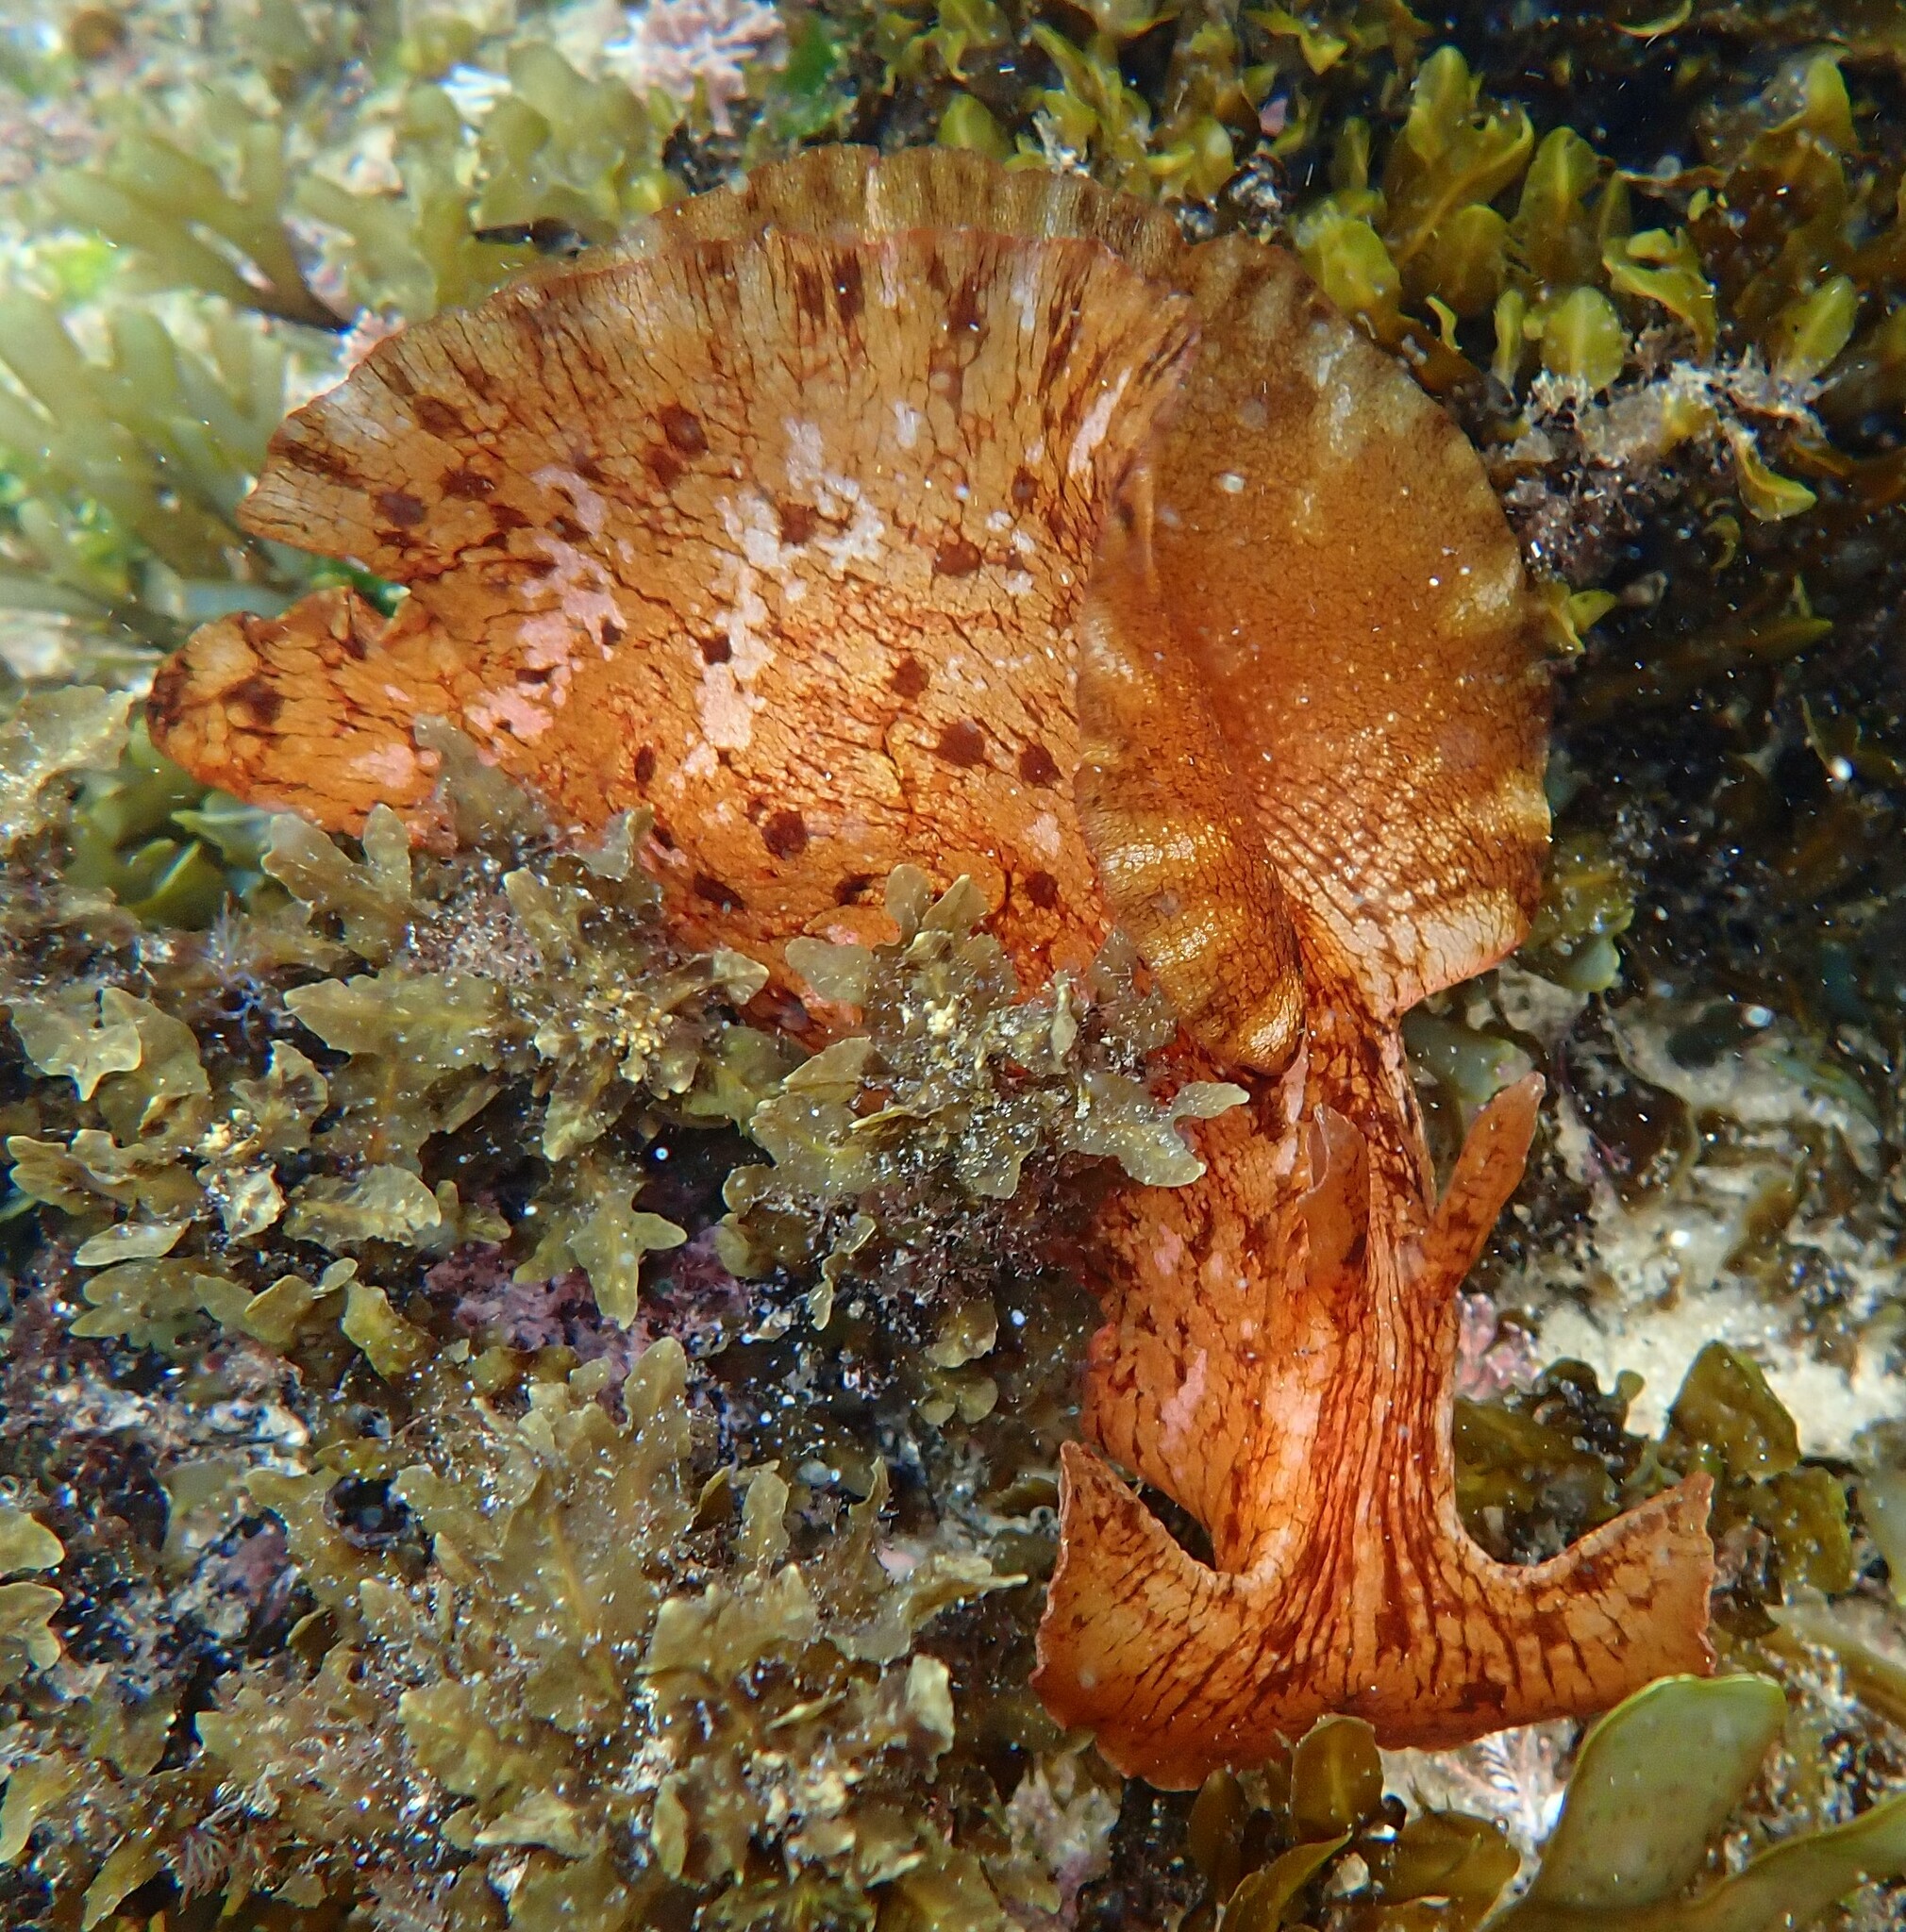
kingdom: Animalia
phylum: Mollusca
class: Gastropoda
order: Aplysiida
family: Aplysiidae
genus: Aplysia
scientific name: Aplysia extraordinaria
